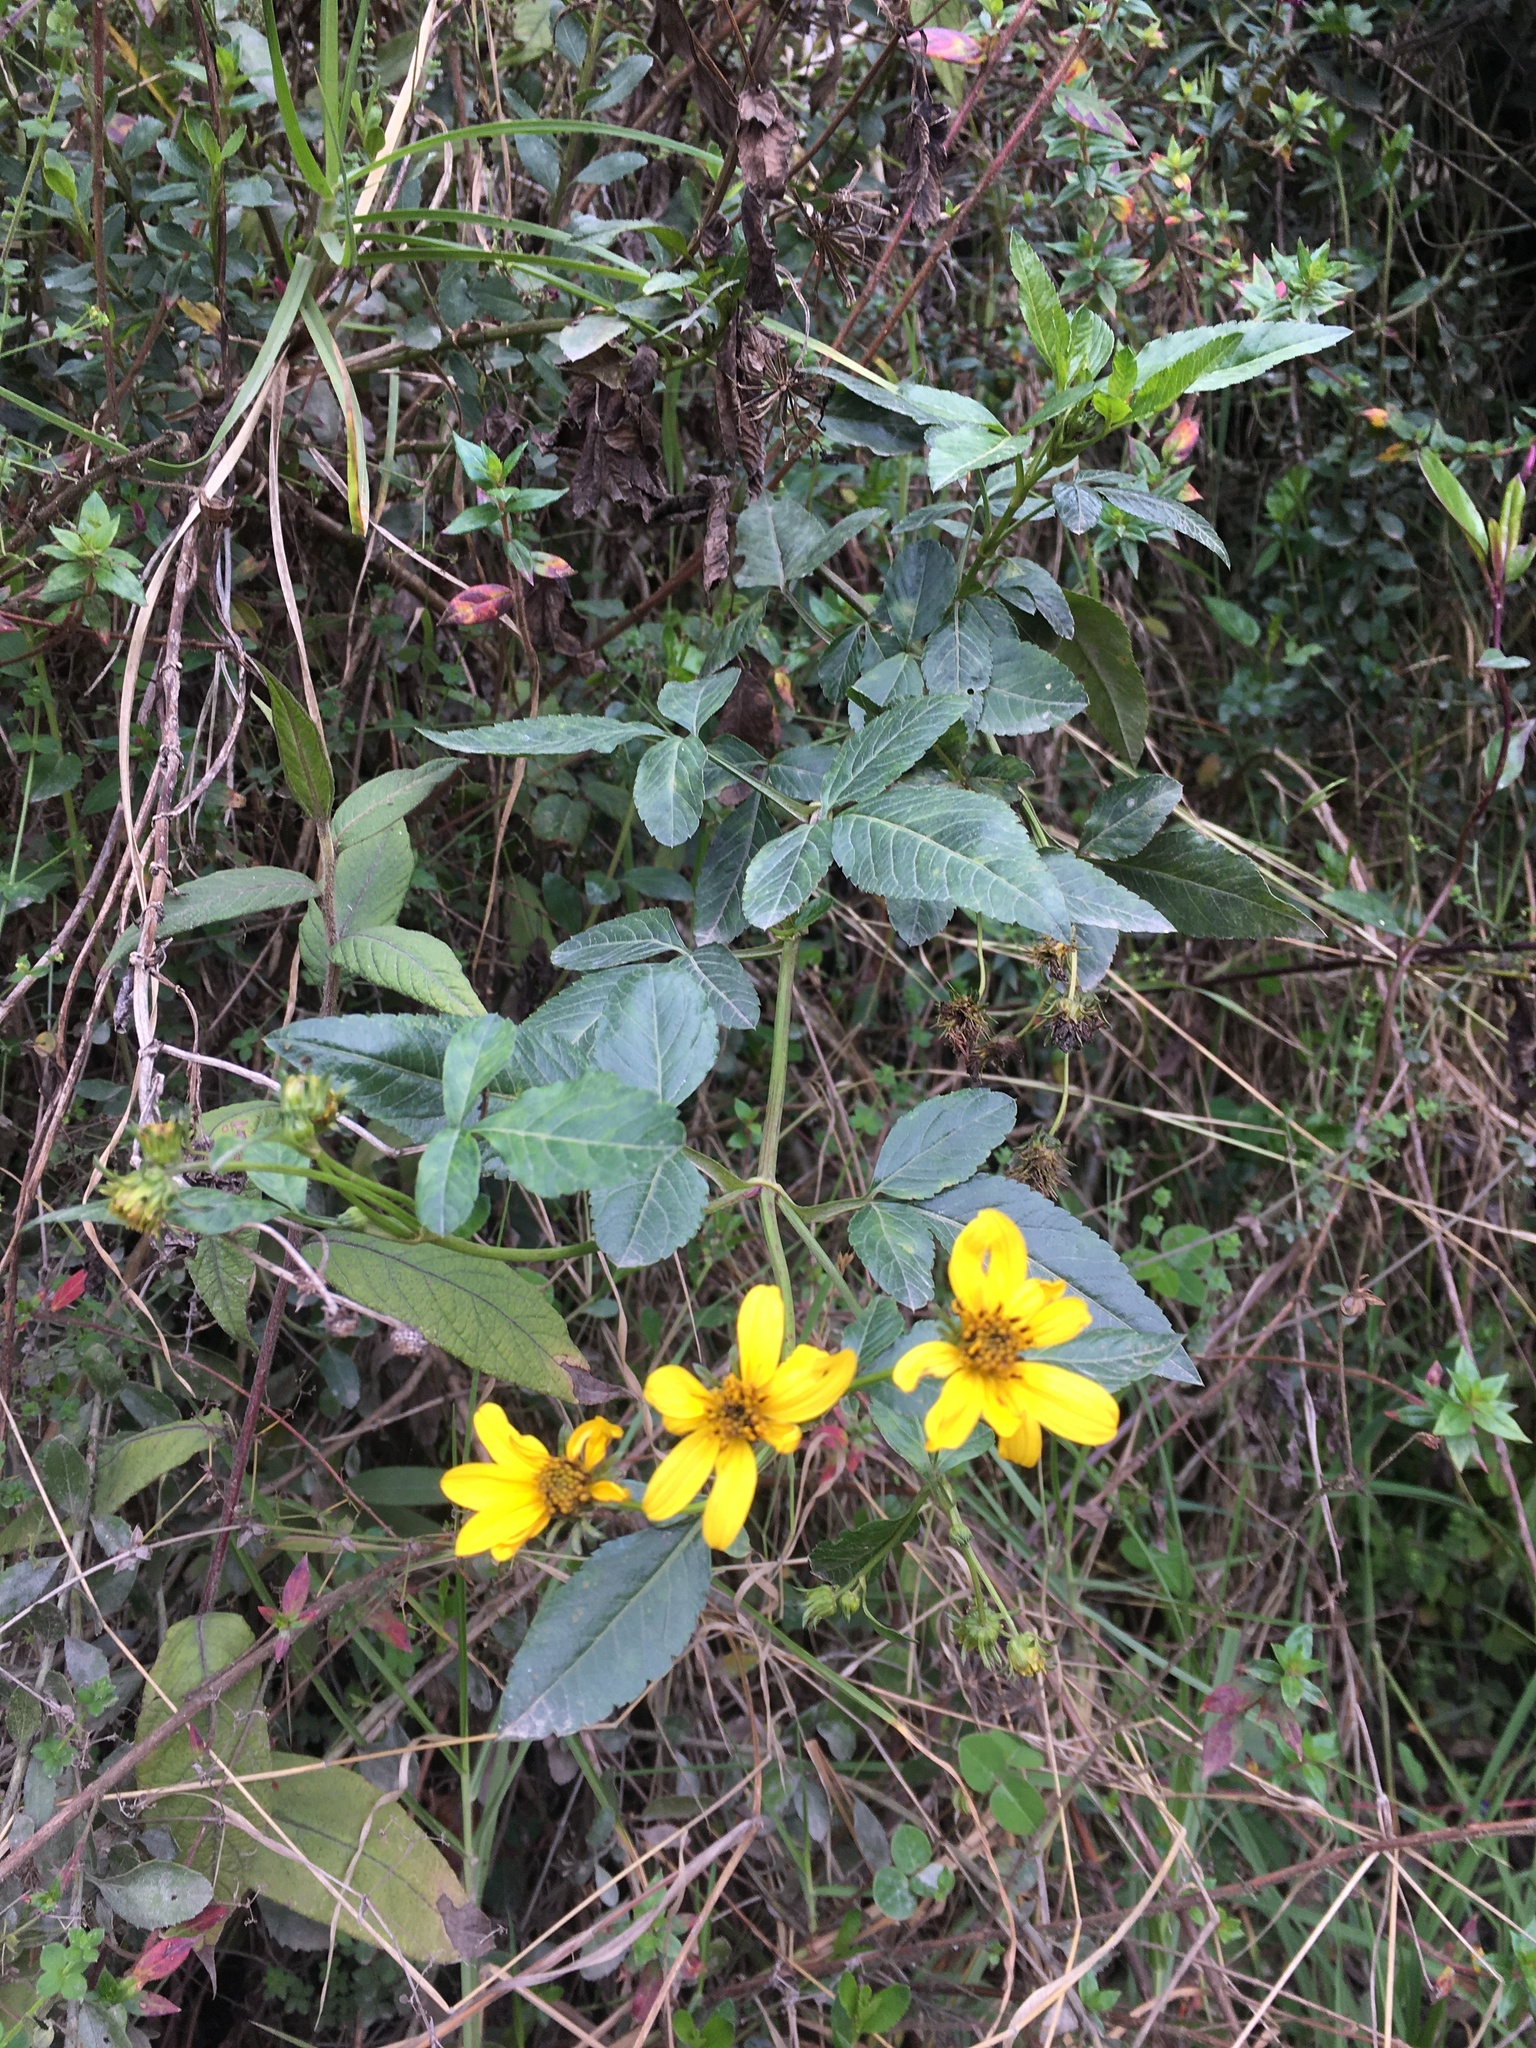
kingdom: Plantae
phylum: Tracheophyta
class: Magnoliopsida
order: Asterales
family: Asteraceae
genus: Bidens
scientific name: Bidens rubifolia
